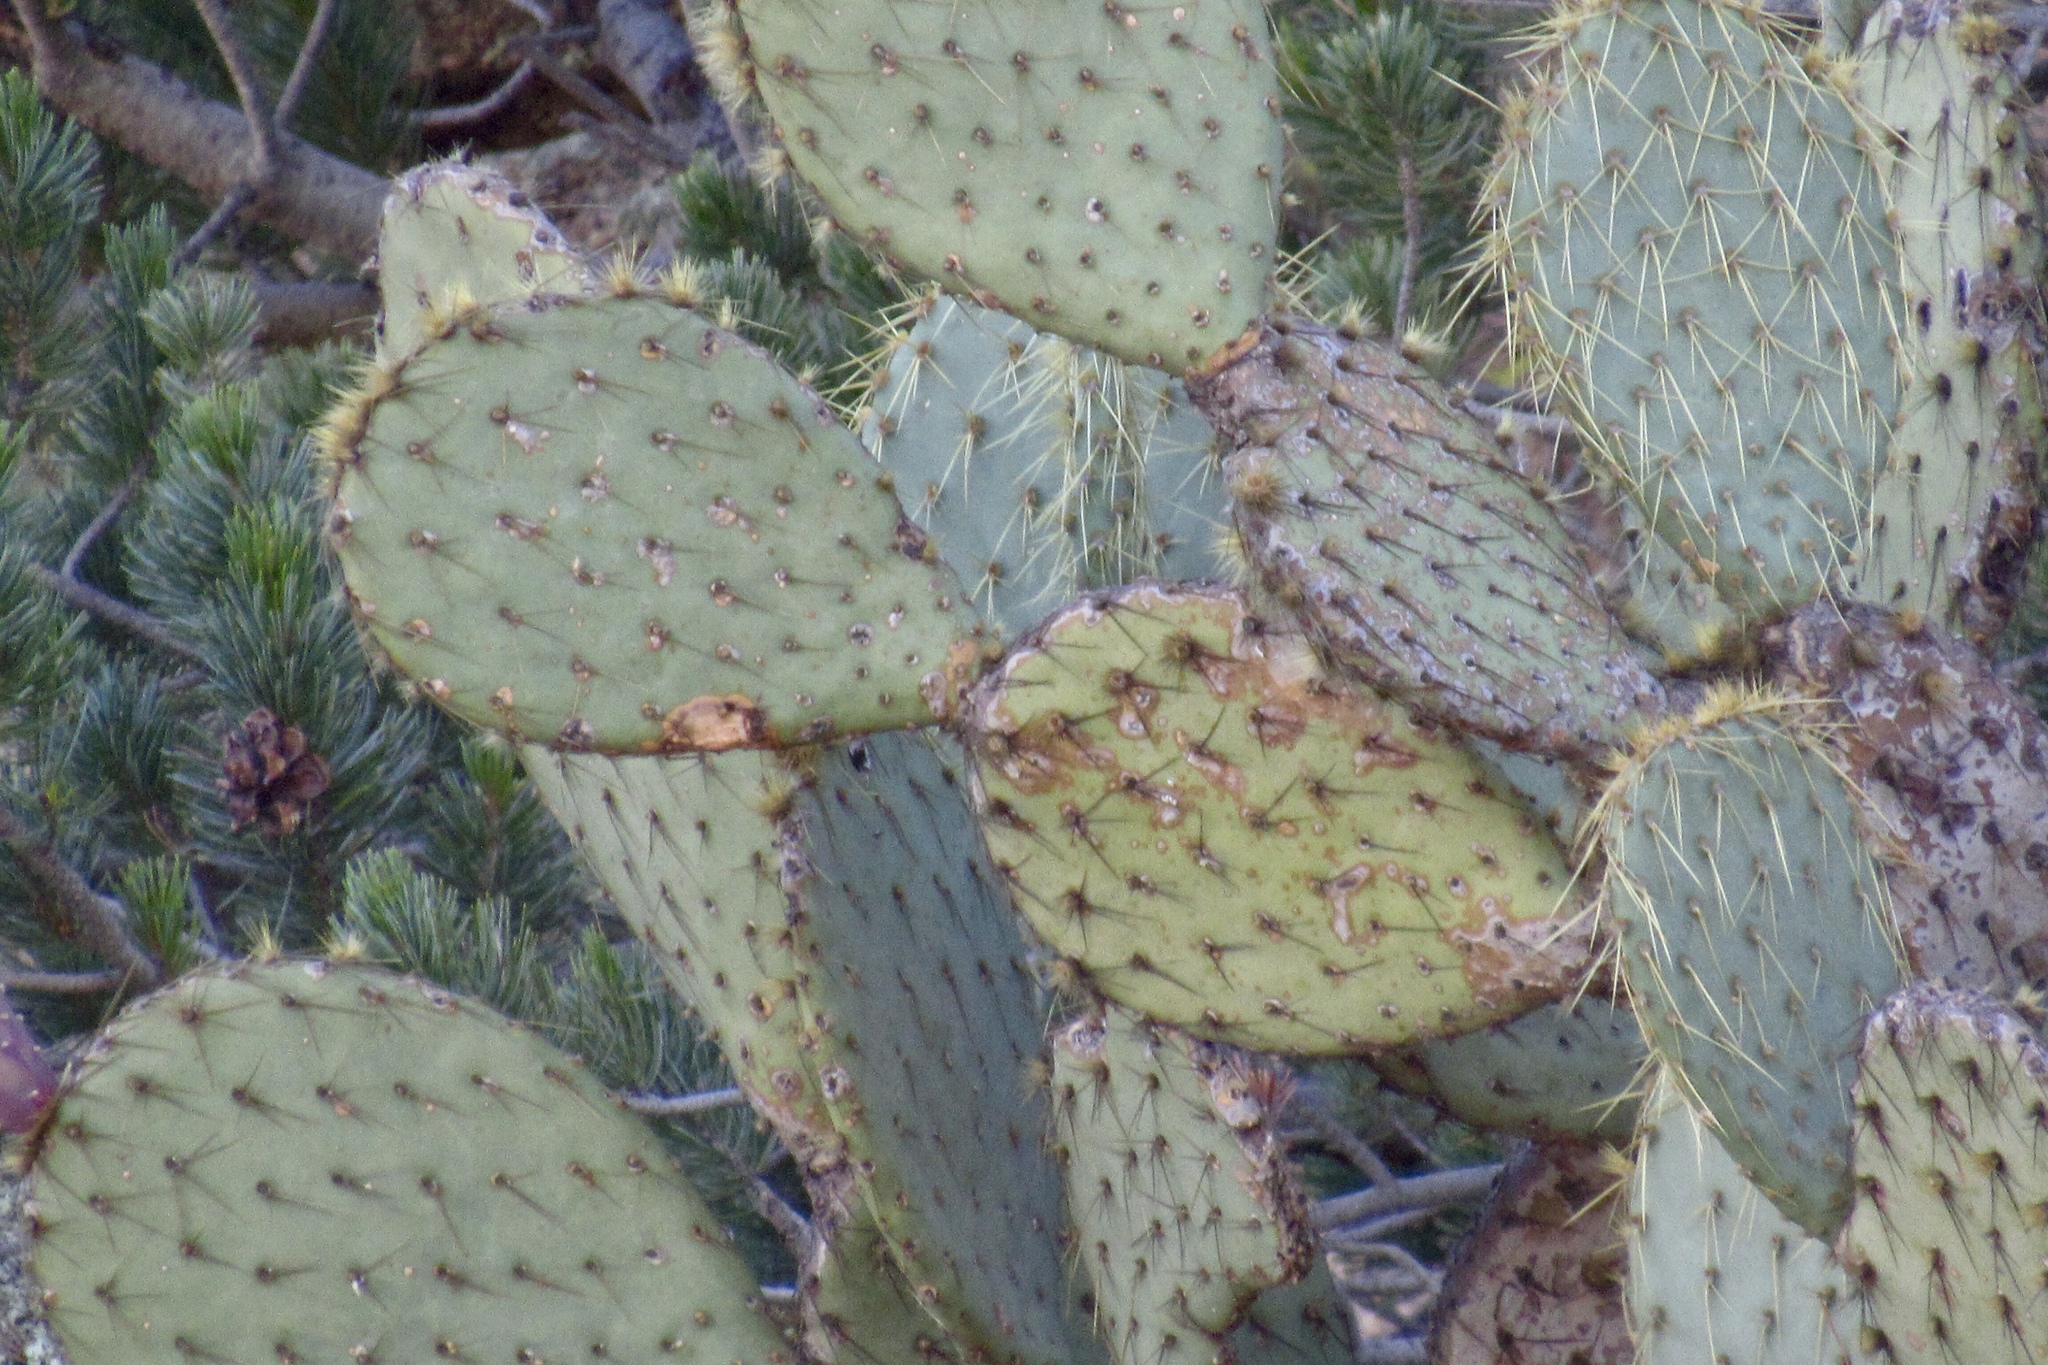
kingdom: Plantae
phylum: Tracheophyta
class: Magnoliopsida
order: Caryophyllales
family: Cactaceae
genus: Opuntia
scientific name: Opuntia chlorotica
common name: Dollar-joint prickly-pear
